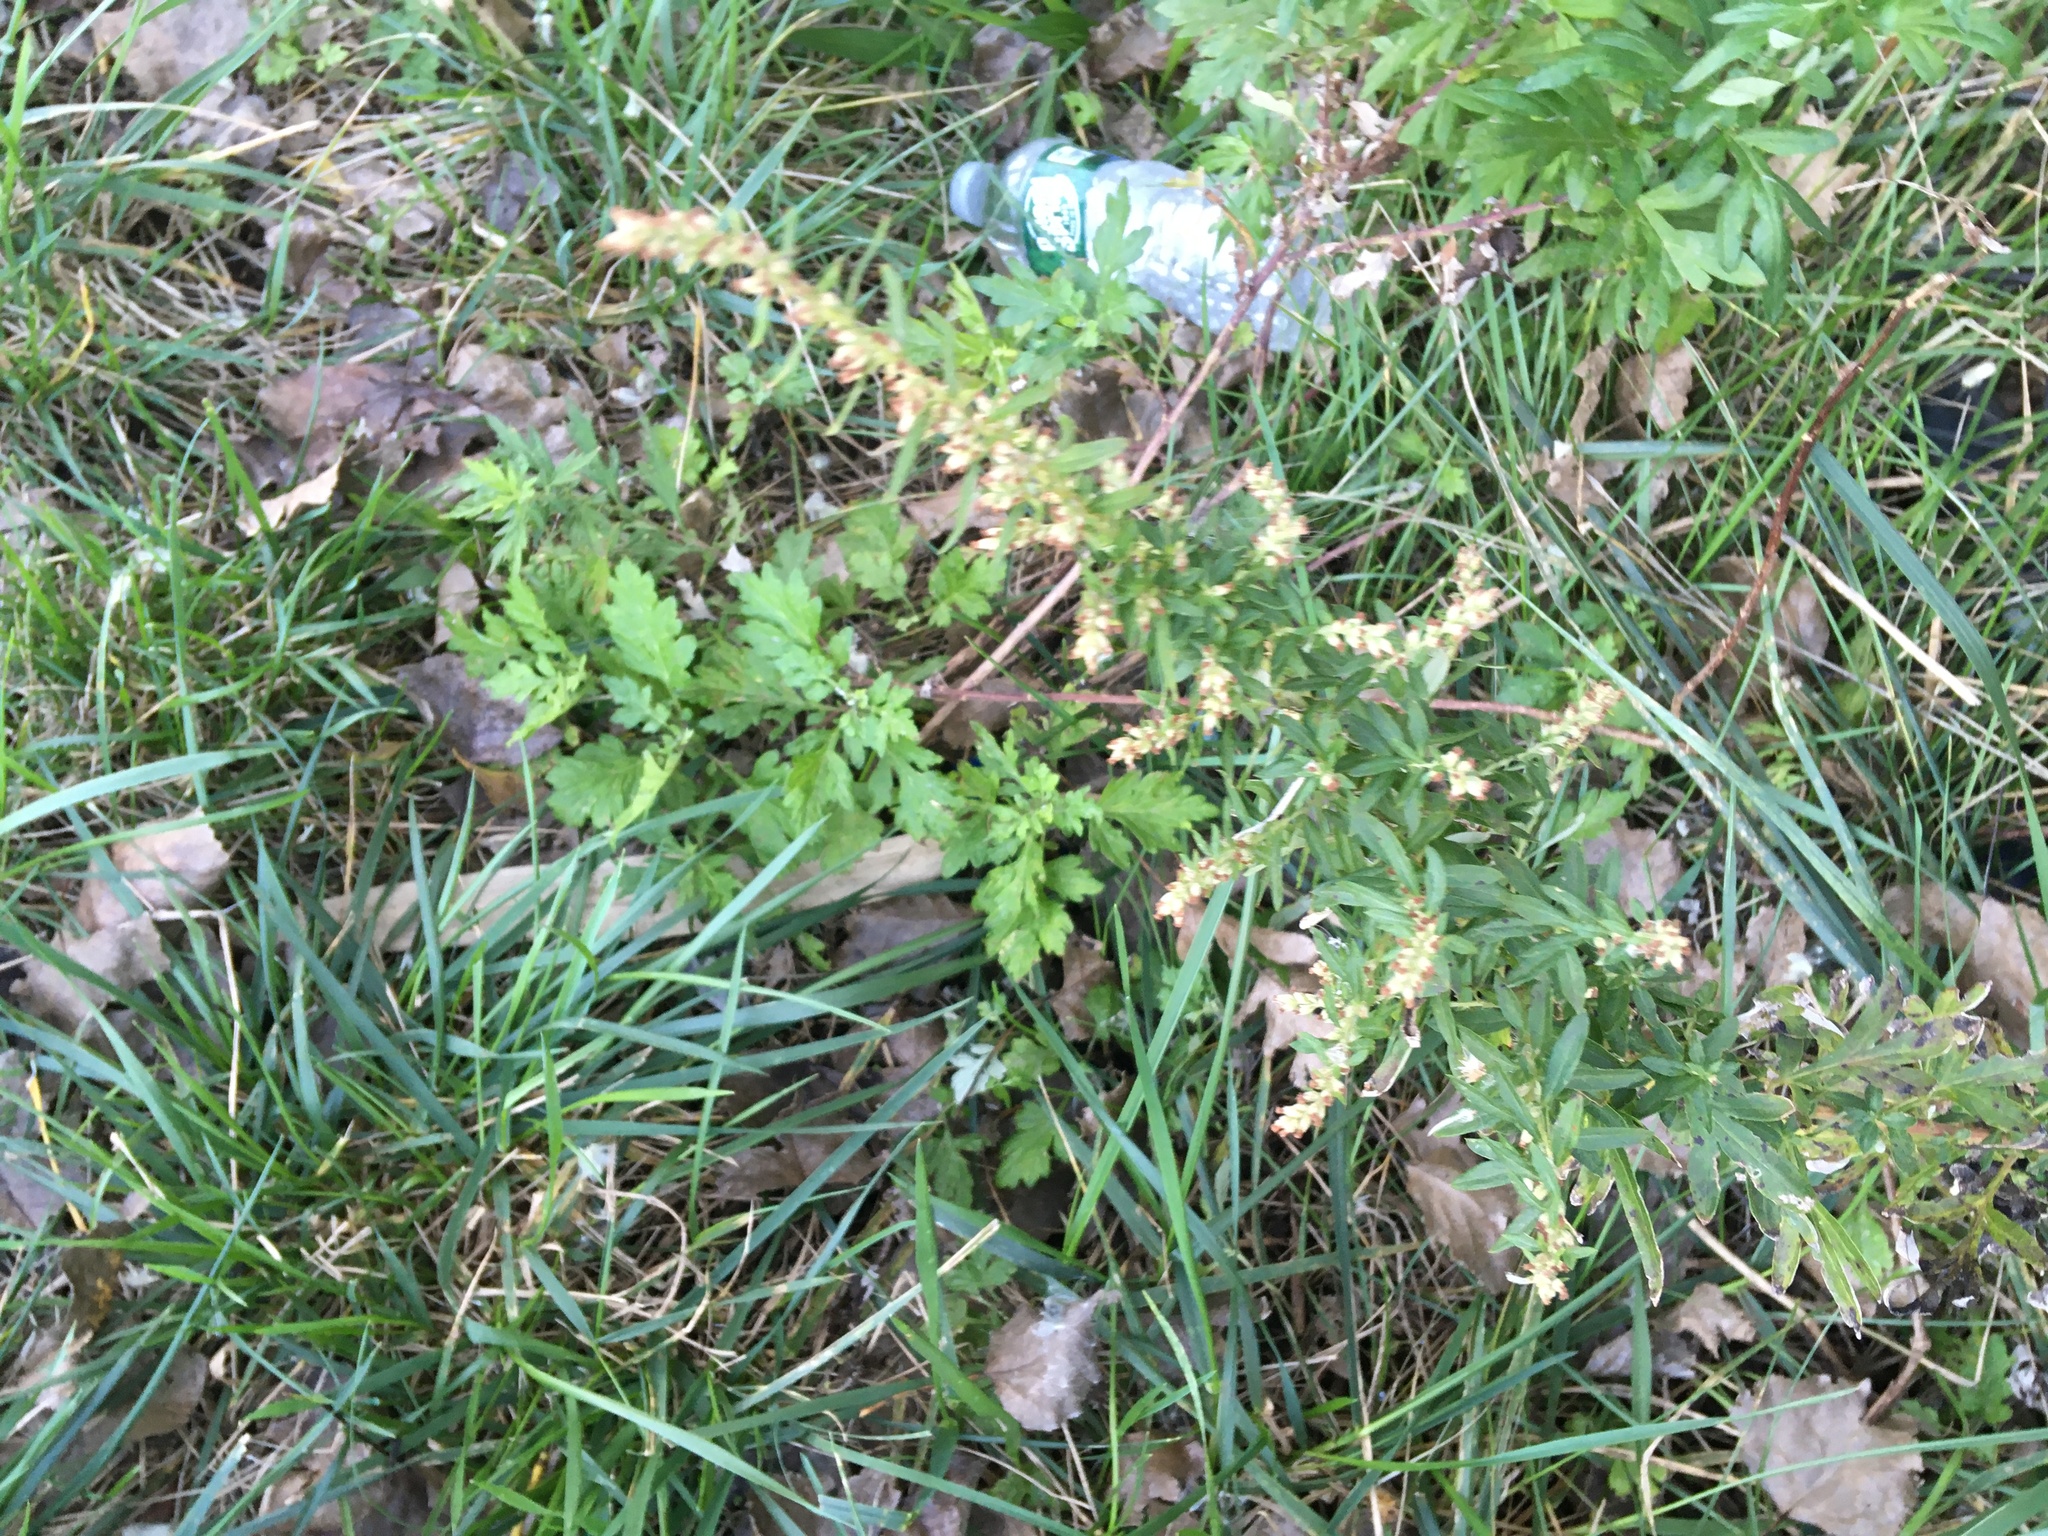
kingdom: Plantae
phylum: Tracheophyta
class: Magnoliopsida
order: Asterales
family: Asteraceae
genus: Artemisia
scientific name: Artemisia vulgaris
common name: Mugwort
